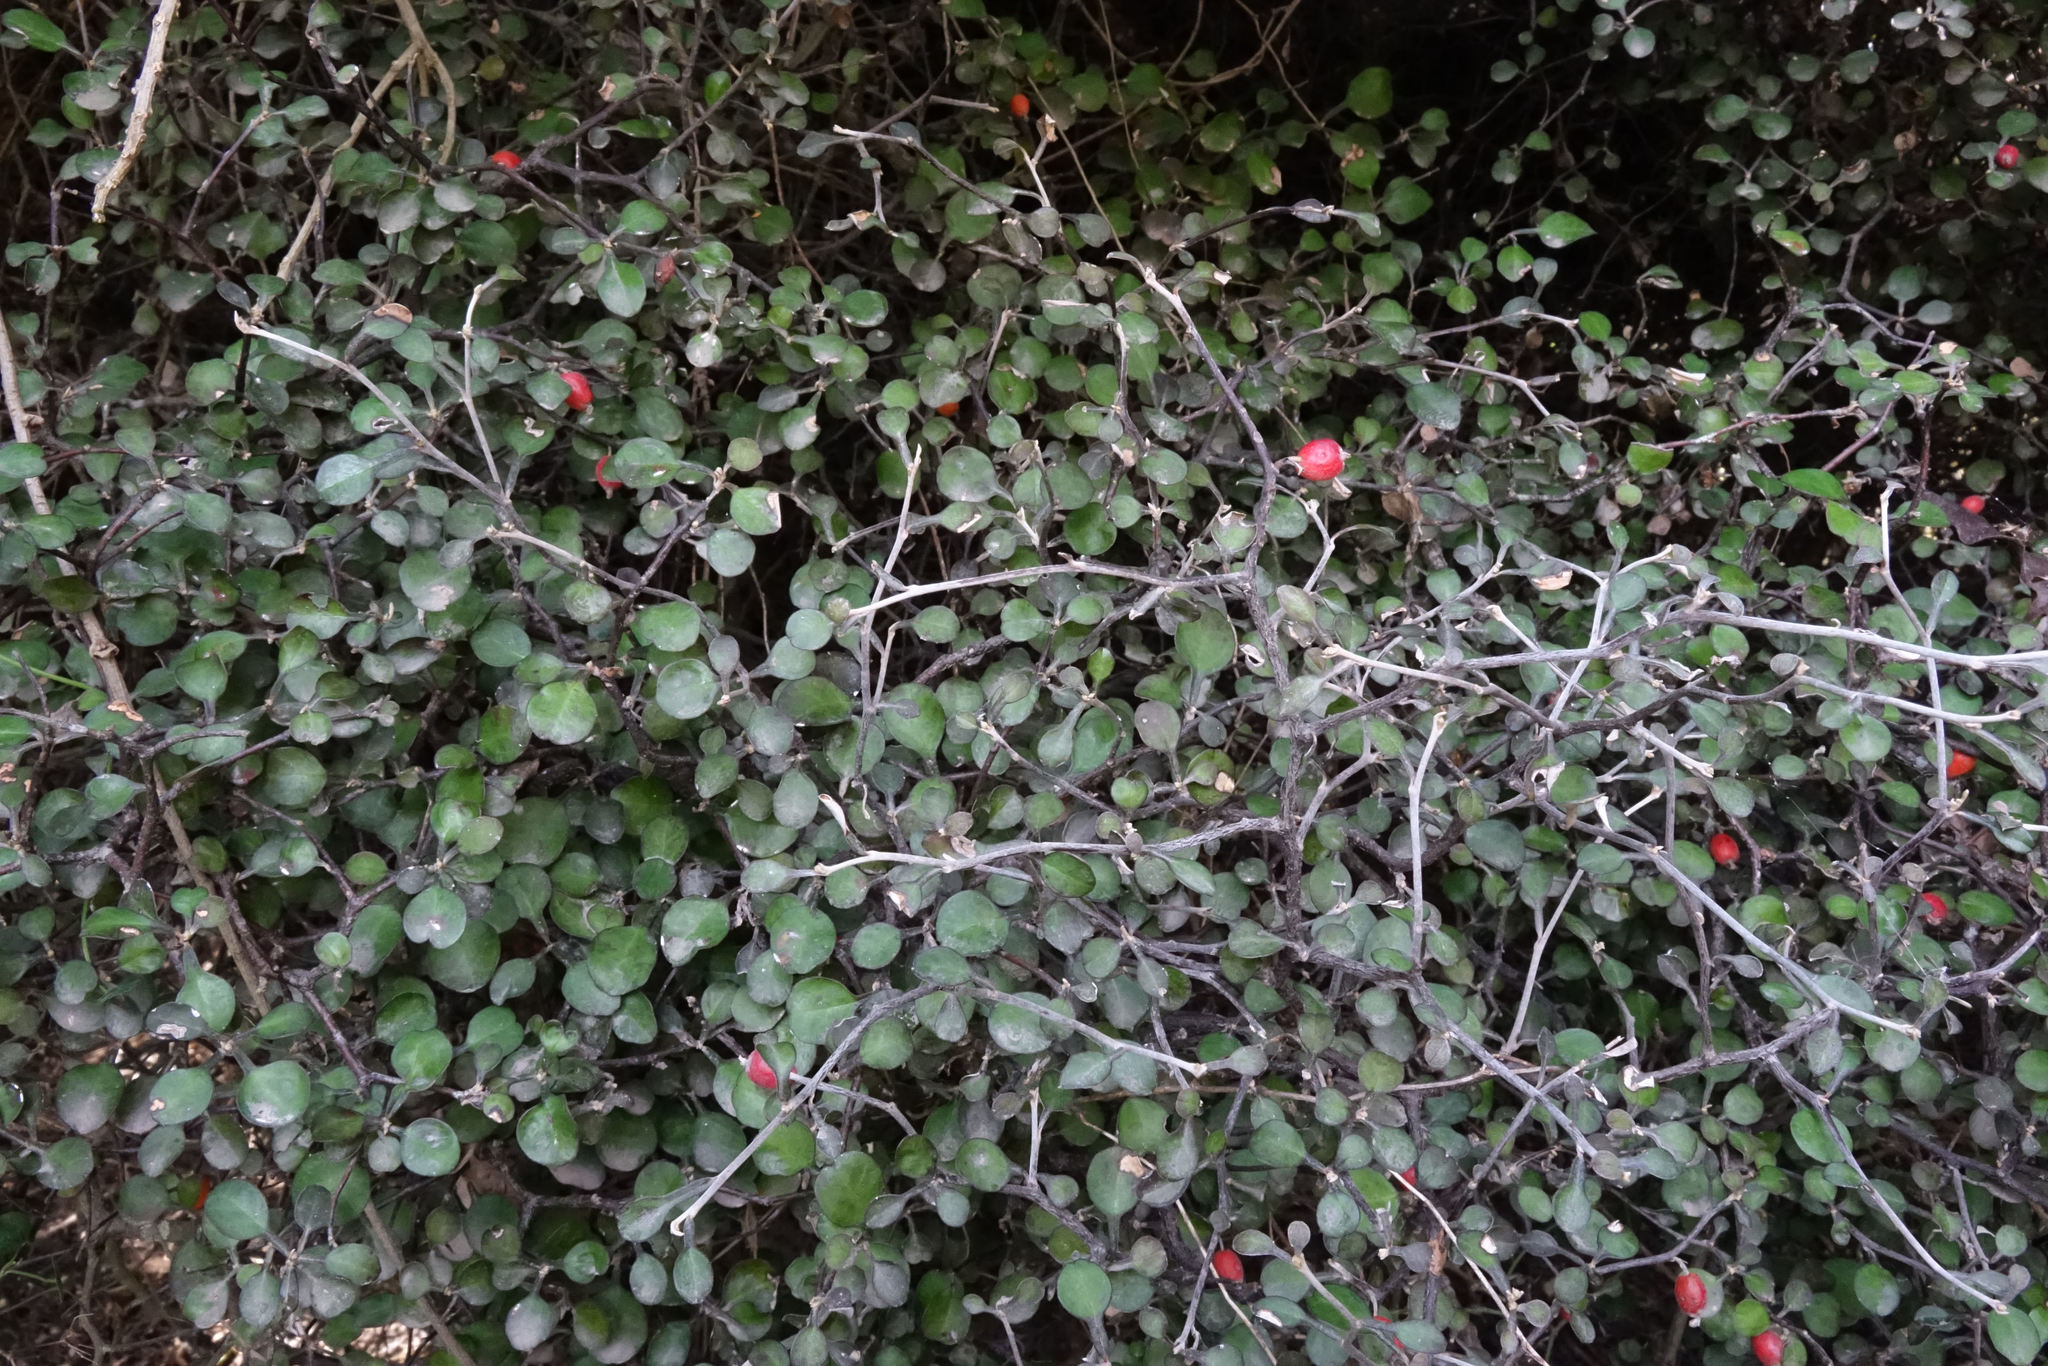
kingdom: Plantae
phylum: Tracheophyta
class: Magnoliopsida
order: Asterales
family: Argophyllaceae
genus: Corokia
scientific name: Corokia cotoneaster
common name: Wire nettingbush
